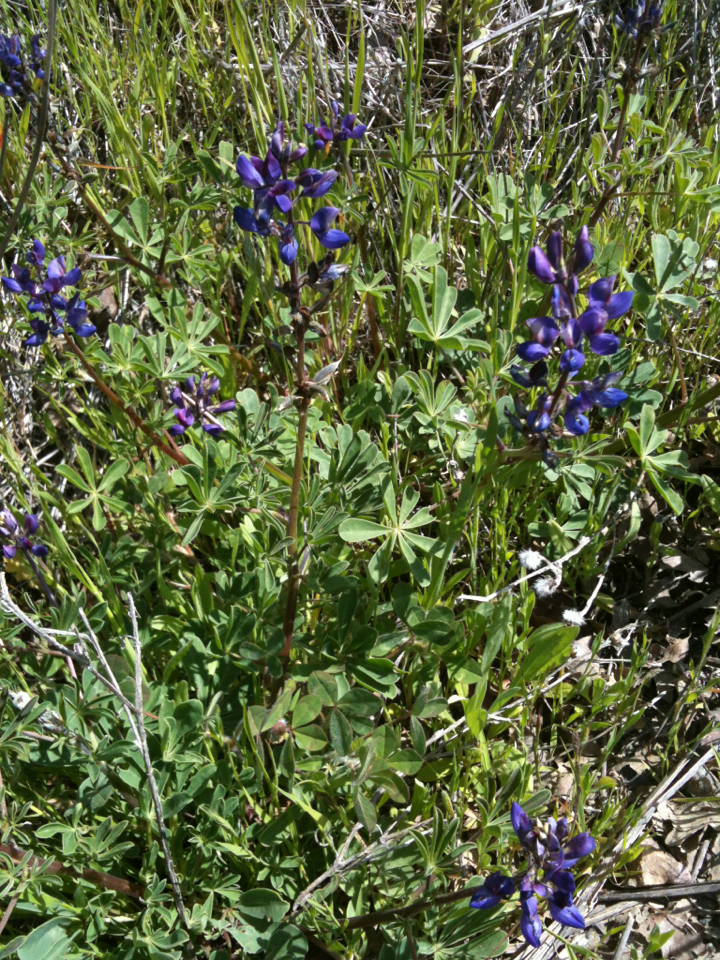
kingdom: Plantae
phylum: Tracheophyta
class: Magnoliopsida
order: Fabales
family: Fabaceae
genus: Lupinus
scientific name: Lupinus succulentus
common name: Arroyo lupine
